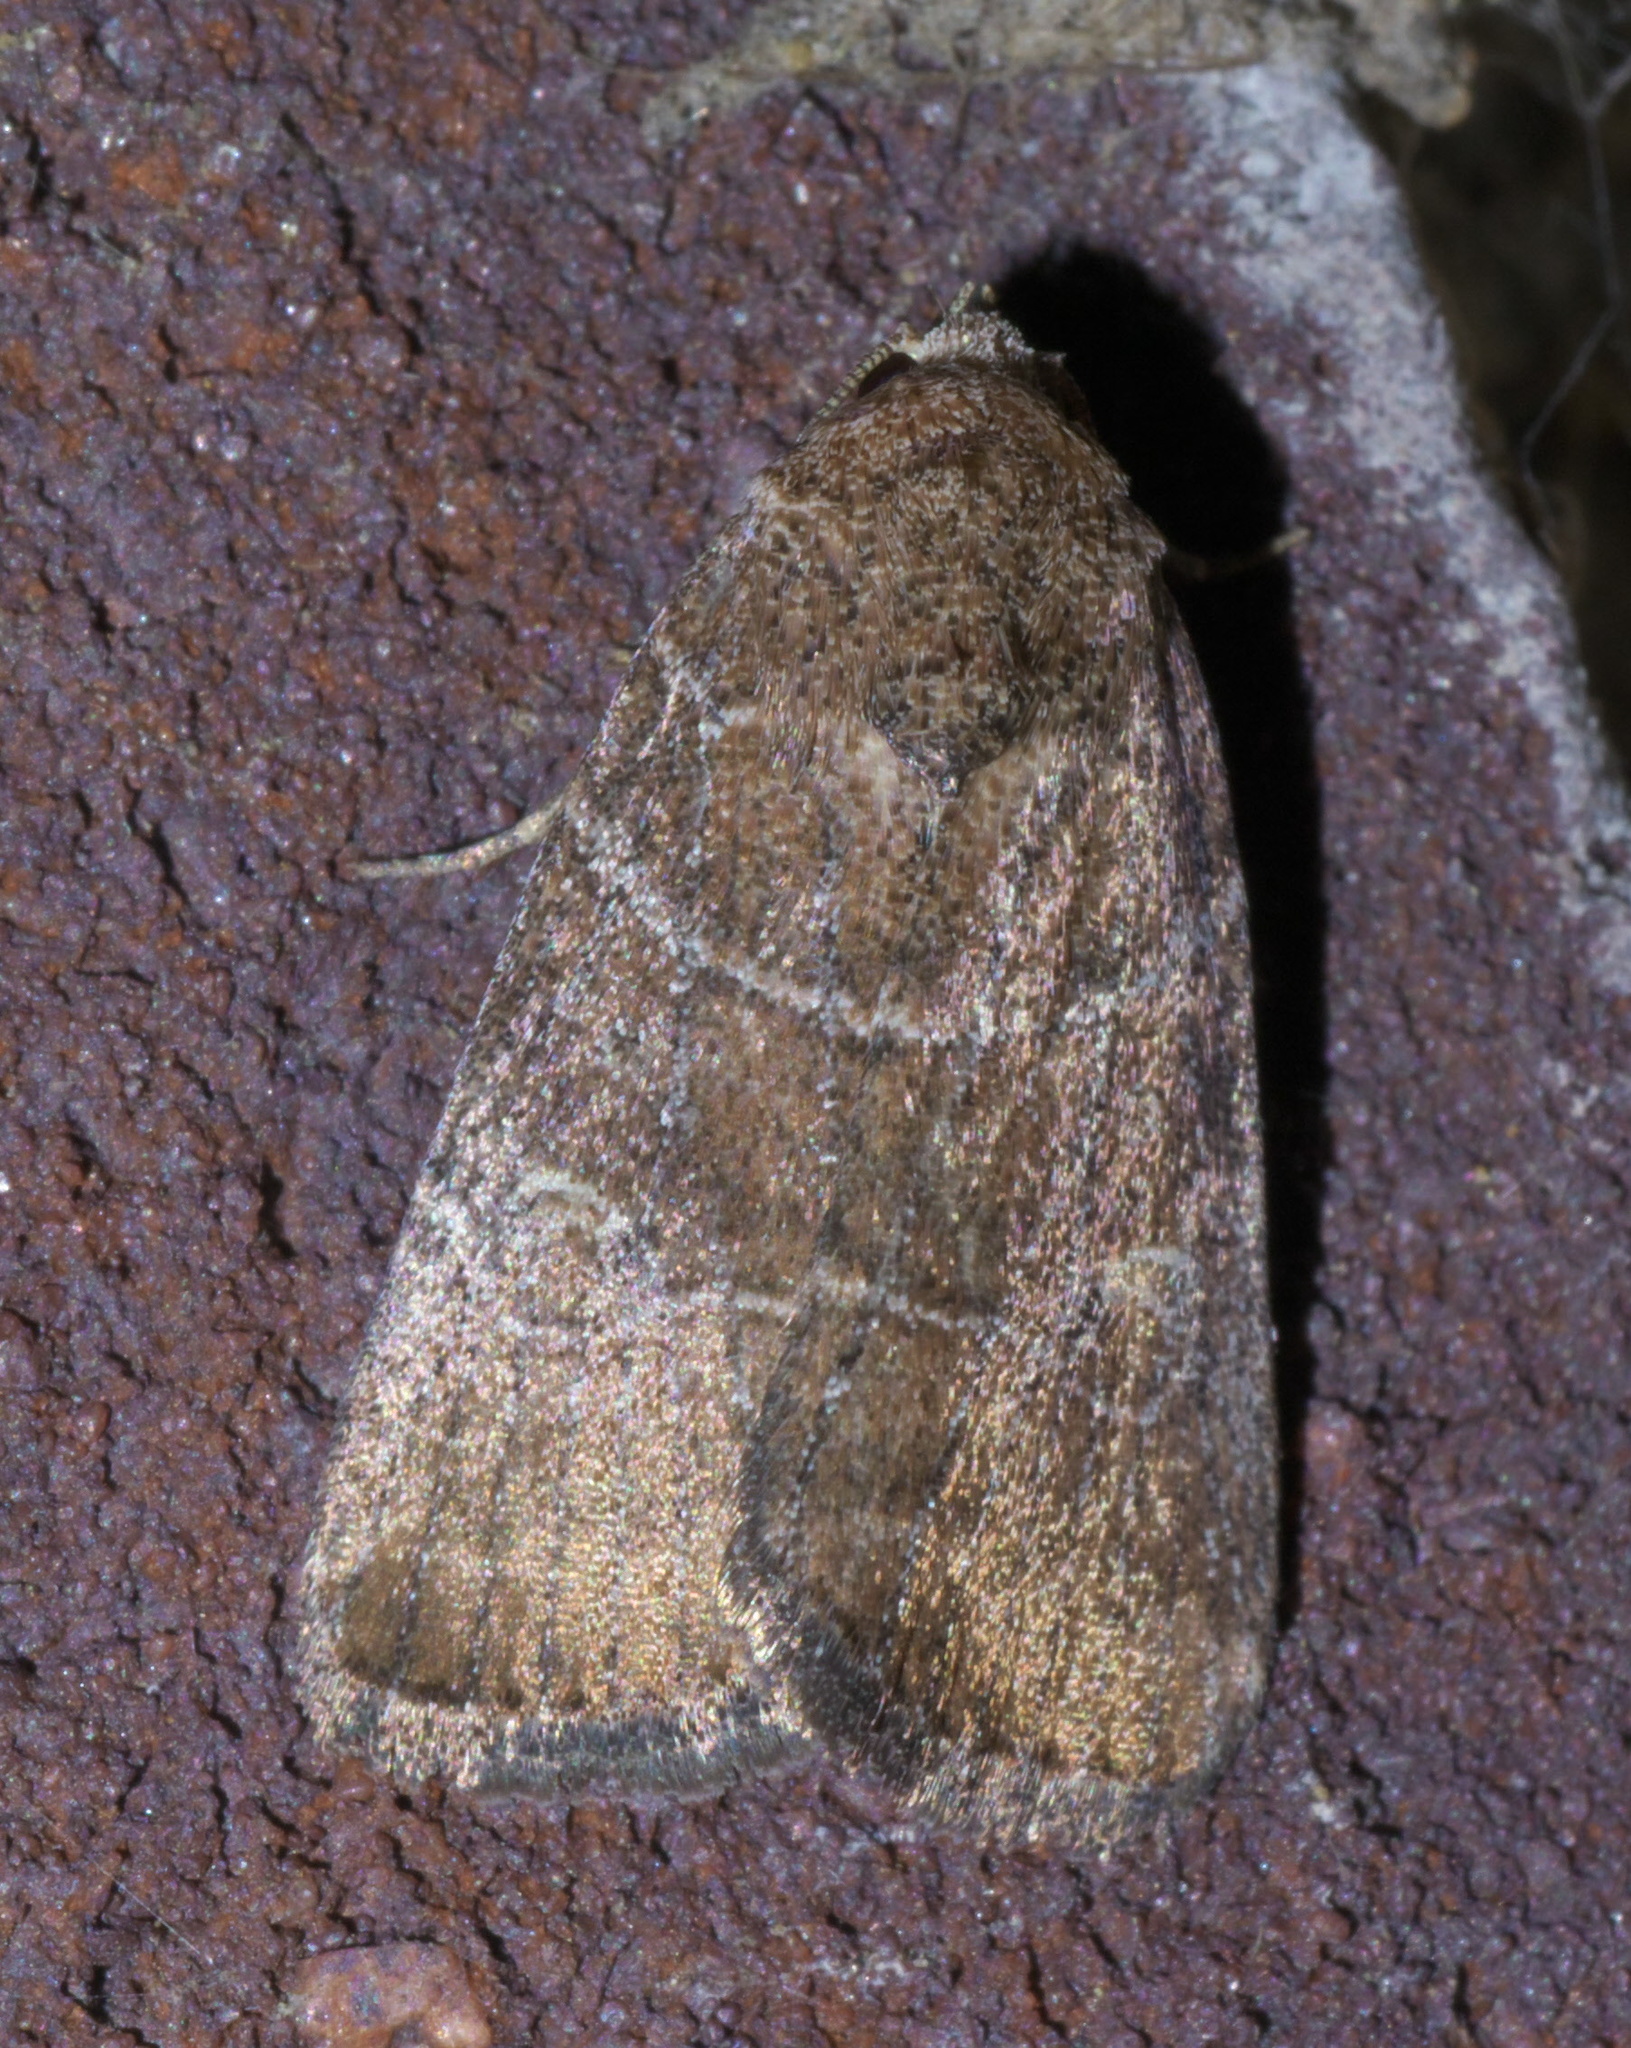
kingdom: Animalia
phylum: Arthropoda
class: Insecta
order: Lepidoptera
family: Noctuidae
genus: Elaphria
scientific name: Elaphria grata
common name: Grateful midget moth
